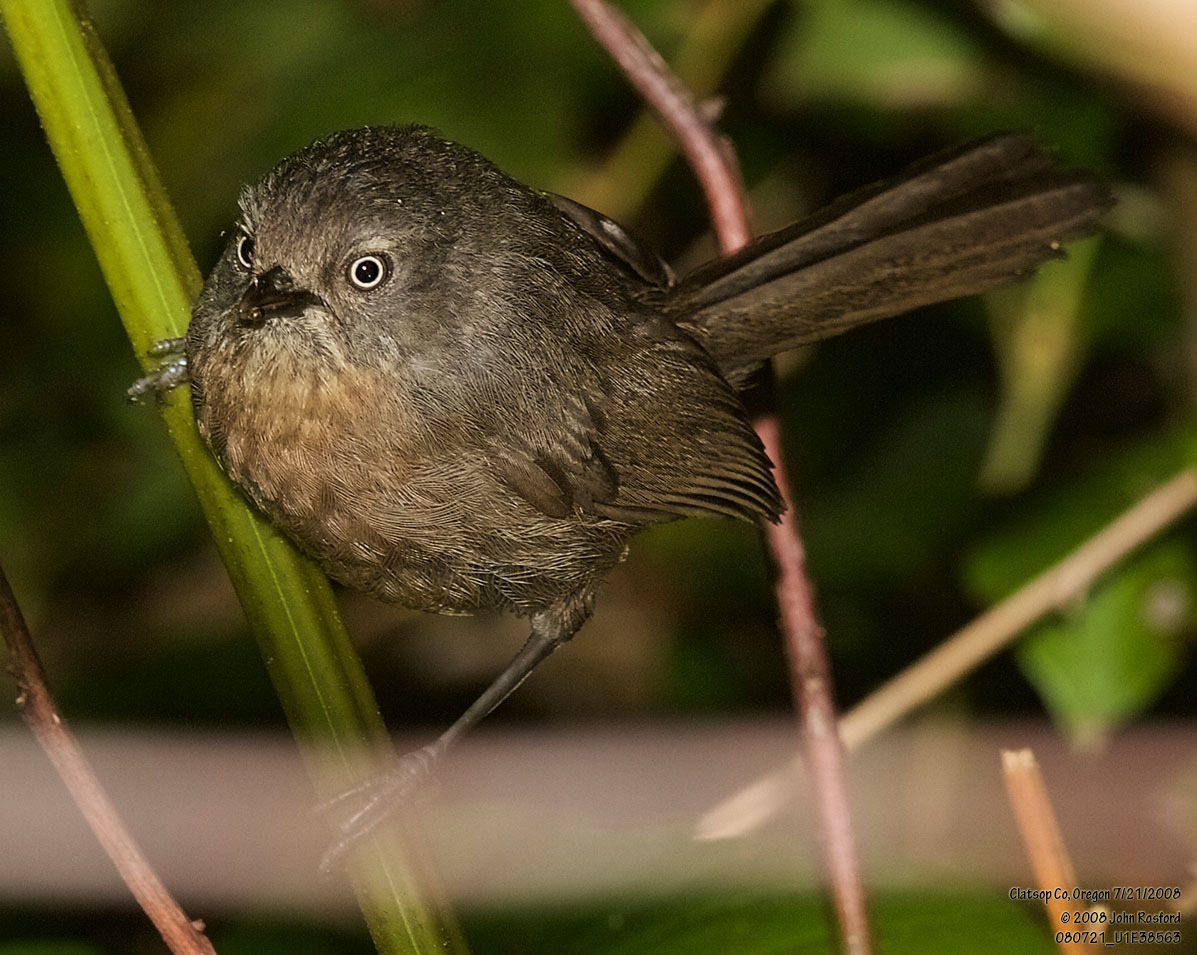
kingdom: Animalia
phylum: Chordata
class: Aves
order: Passeriformes
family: Sylviidae
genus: Chamaea
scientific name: Chamaea fasciata
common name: Wrentit
